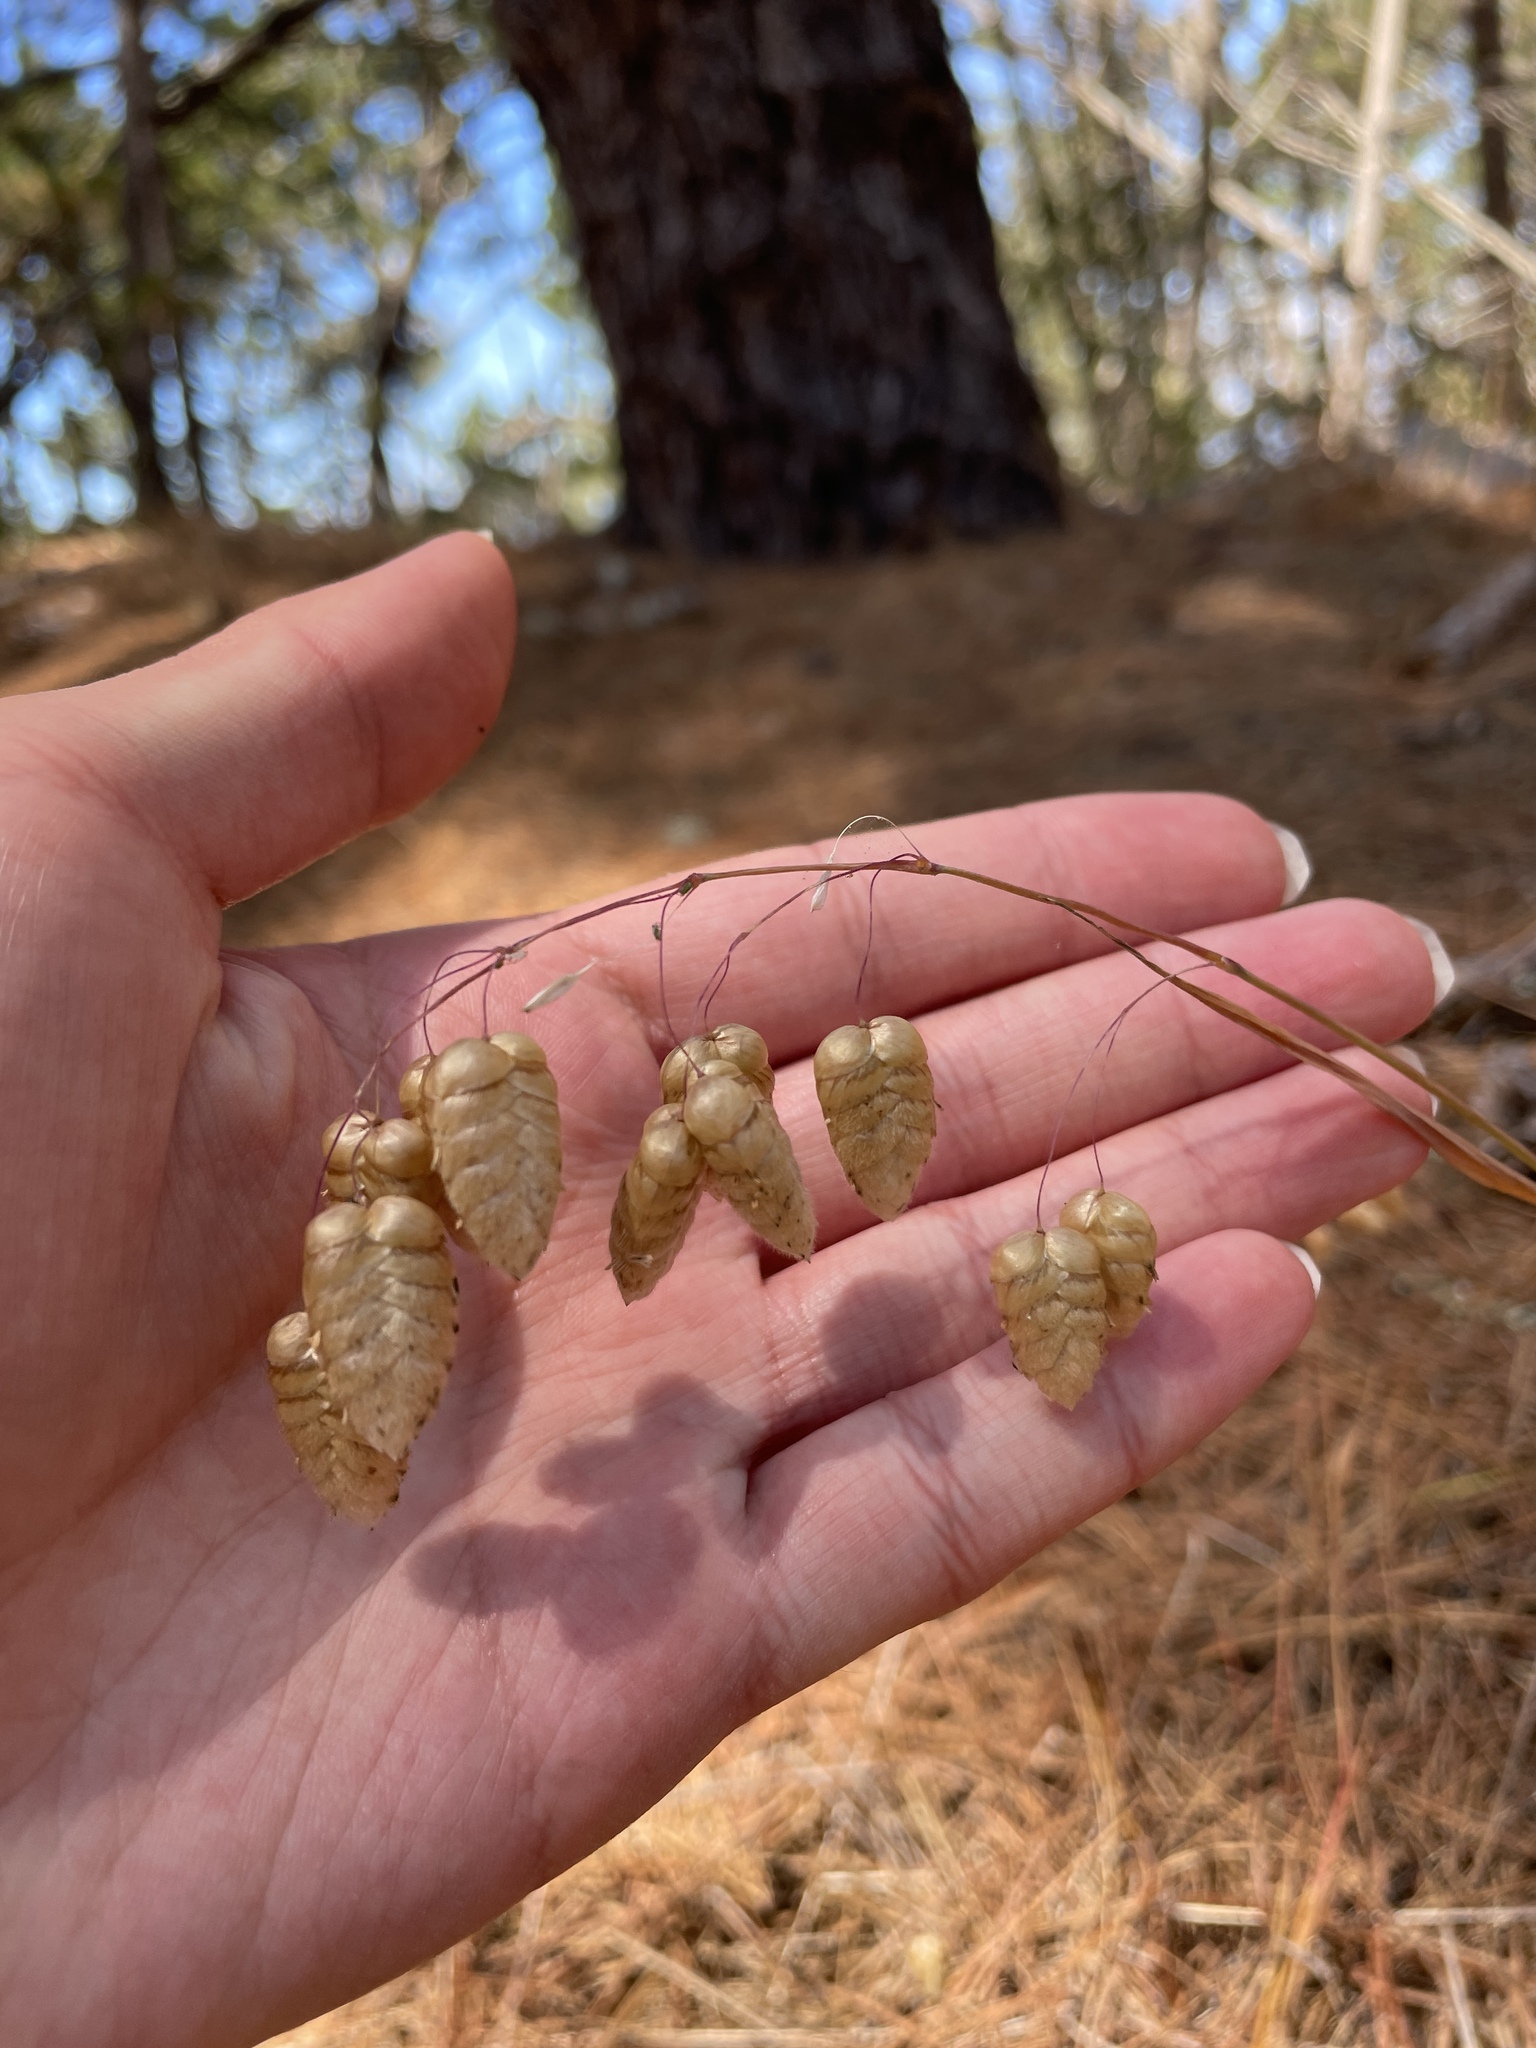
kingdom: Plantae
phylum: Tracheophyta
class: Liliopsida
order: Poales
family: Poaceae
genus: Briza
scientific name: Briza maxima
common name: Big quakinggrass
